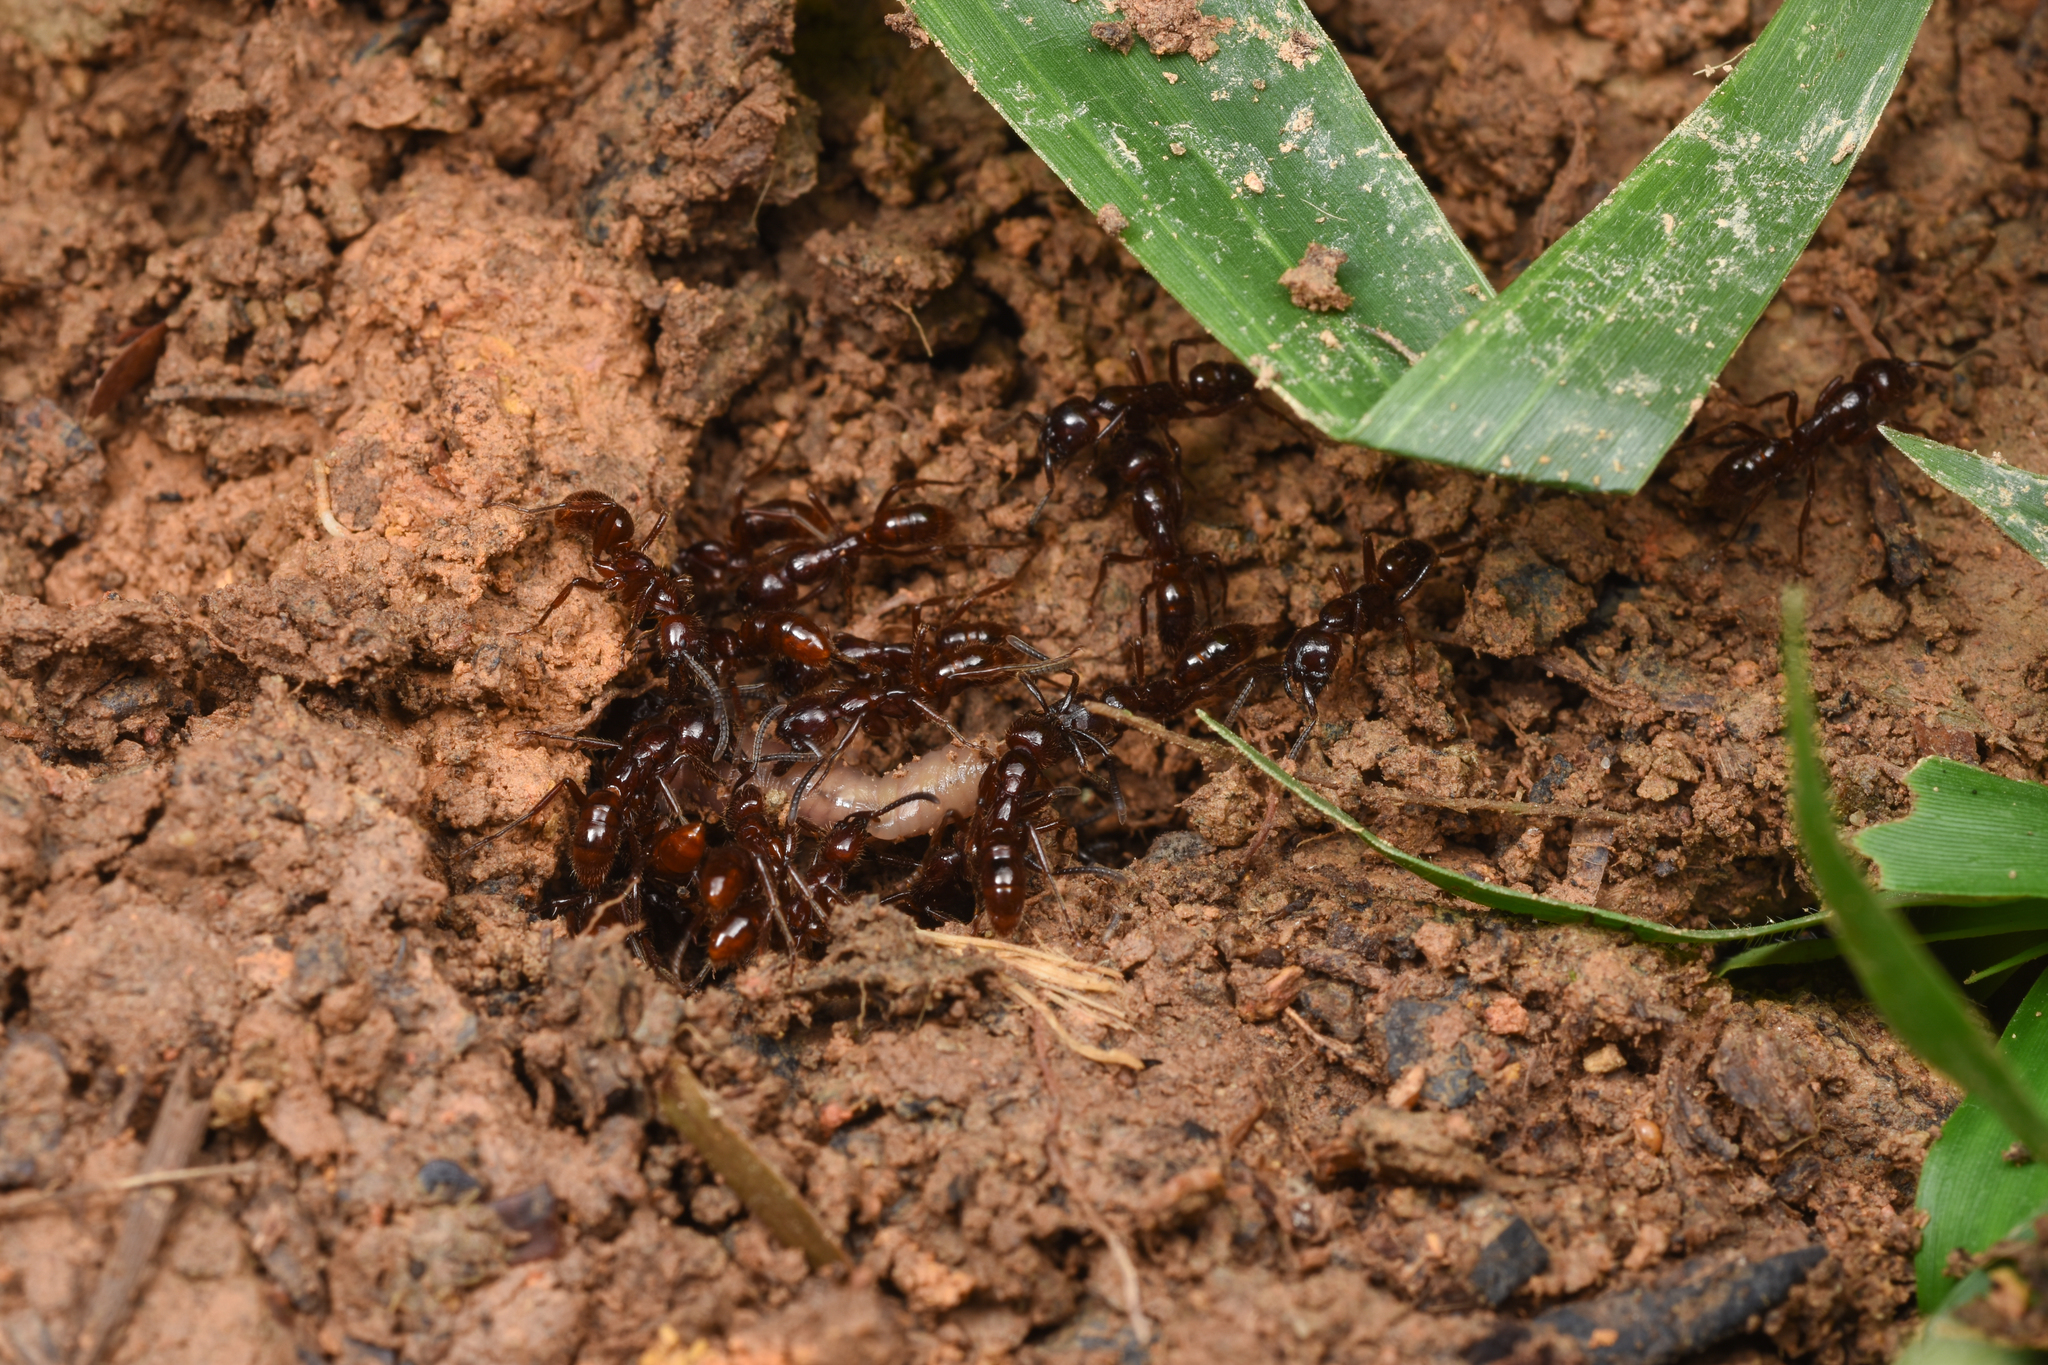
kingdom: Animalia
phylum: Arthropoda
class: Insecta
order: Hymenoptera
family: Formicidae
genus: Leptogenys
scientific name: Leptogenys birmana
